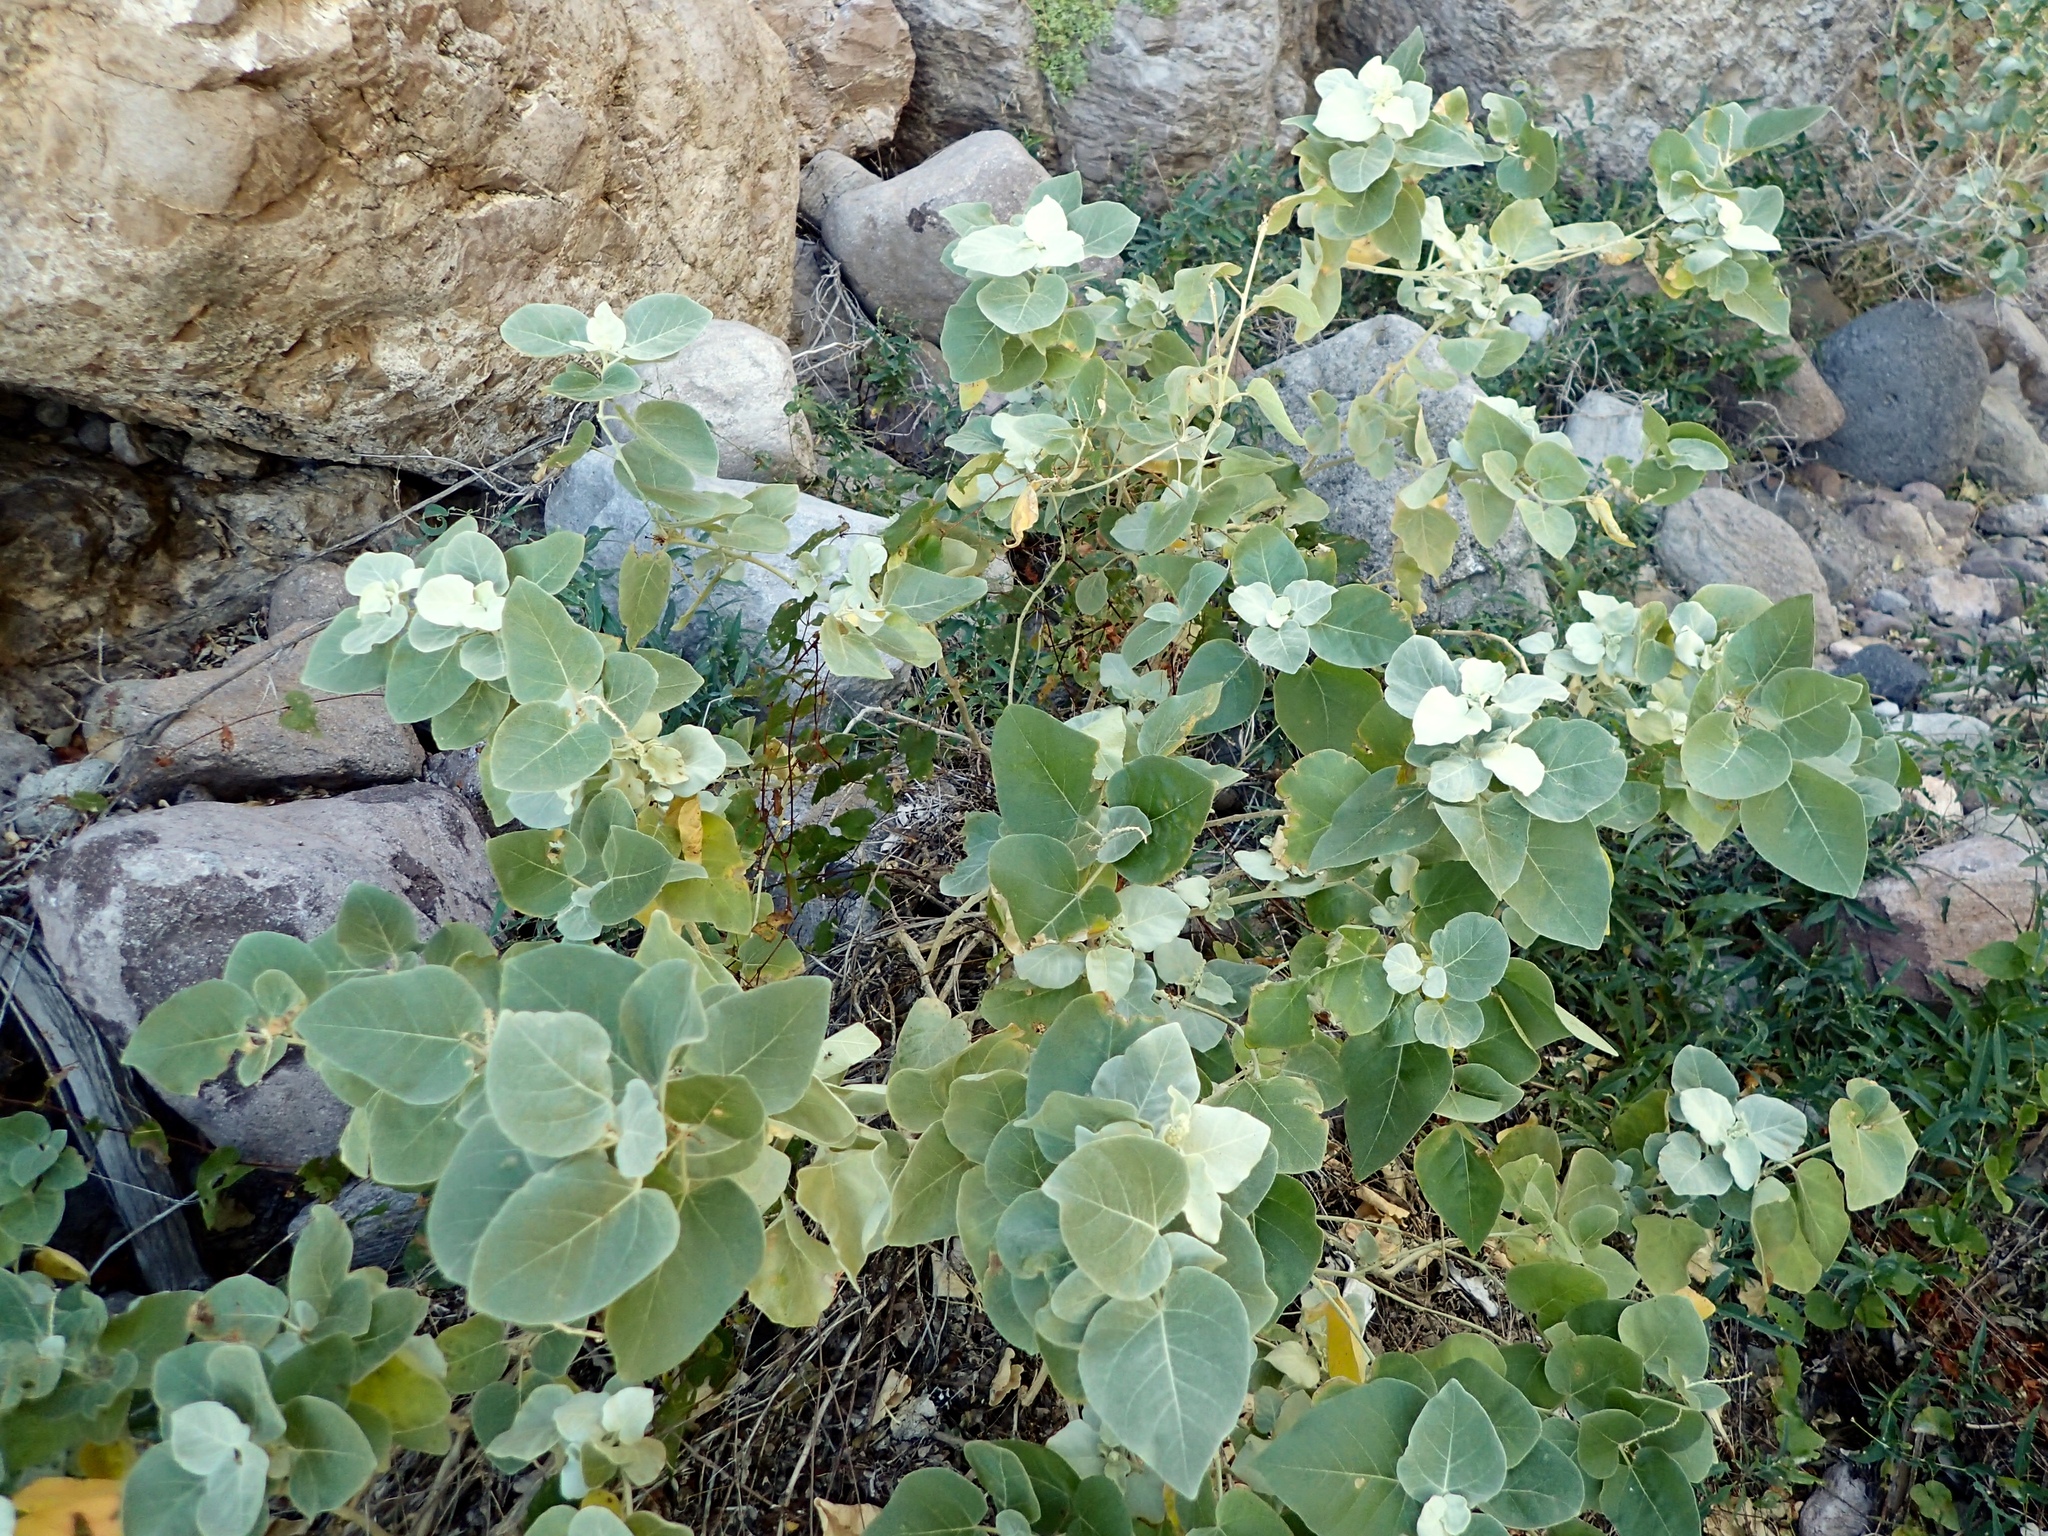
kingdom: Plantae
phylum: Tracheophyta
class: Magnoliopsida
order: Malpighiales
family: Euphorbiaceae
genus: Croton
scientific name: Croton magdalenae
